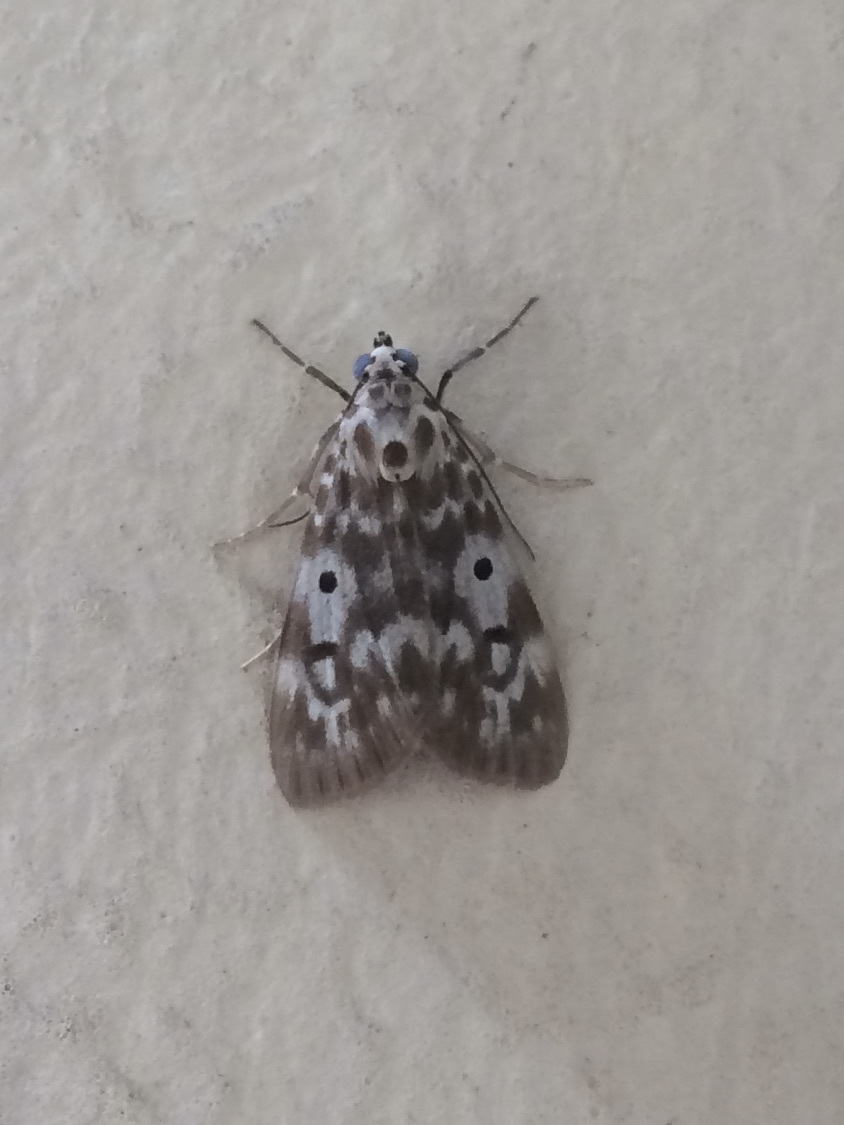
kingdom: Animalia
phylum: Arthropoda
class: Insecta
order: Lepidoptera
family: Erebidae
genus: Digama
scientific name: Digama
